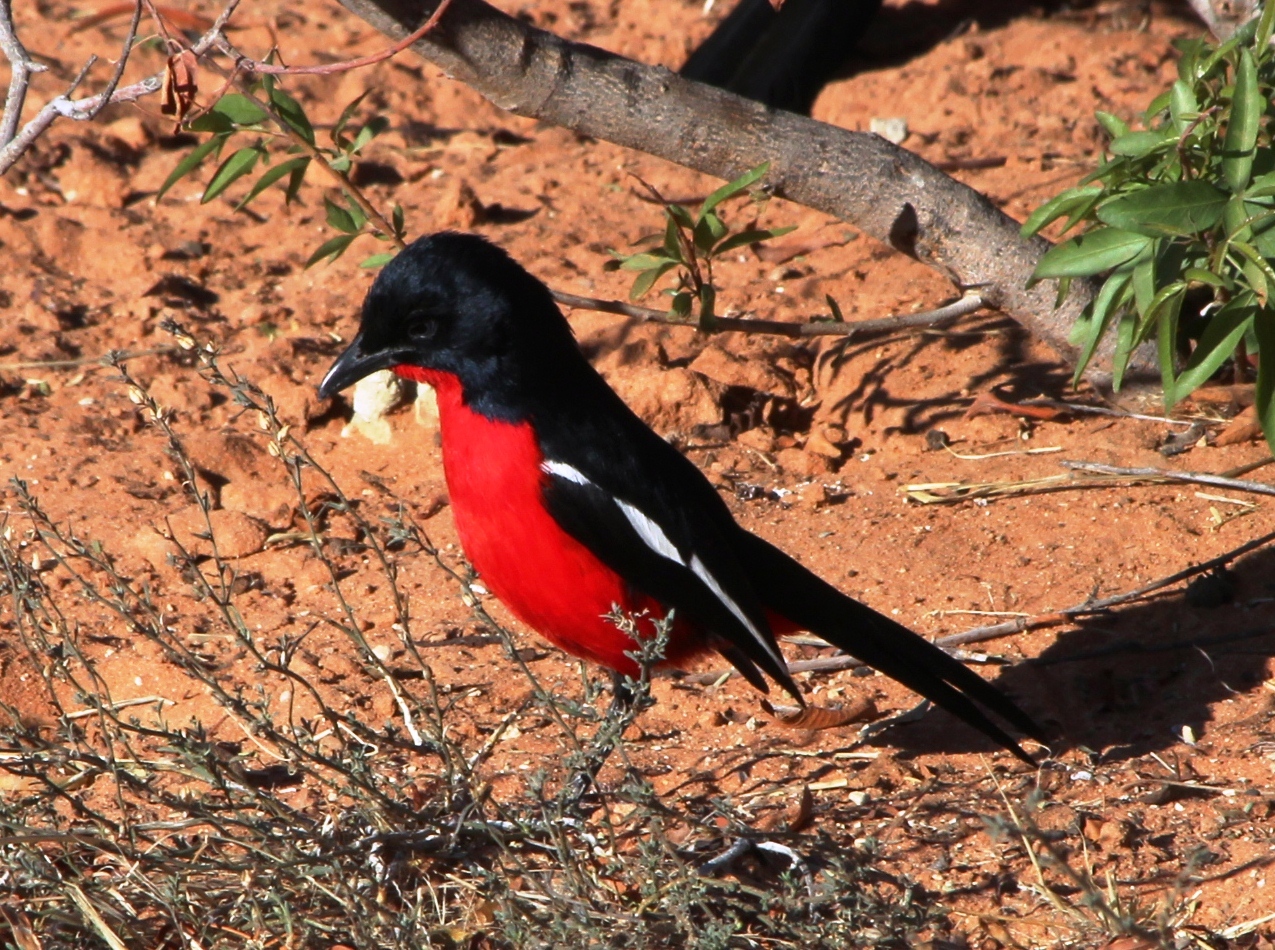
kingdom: Animalia
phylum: Chordata
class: Aves
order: Passeriformes
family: Malaconotidae
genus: Laniarius
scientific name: Laniarius atrococcineus
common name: Crimson-breasted shrike
